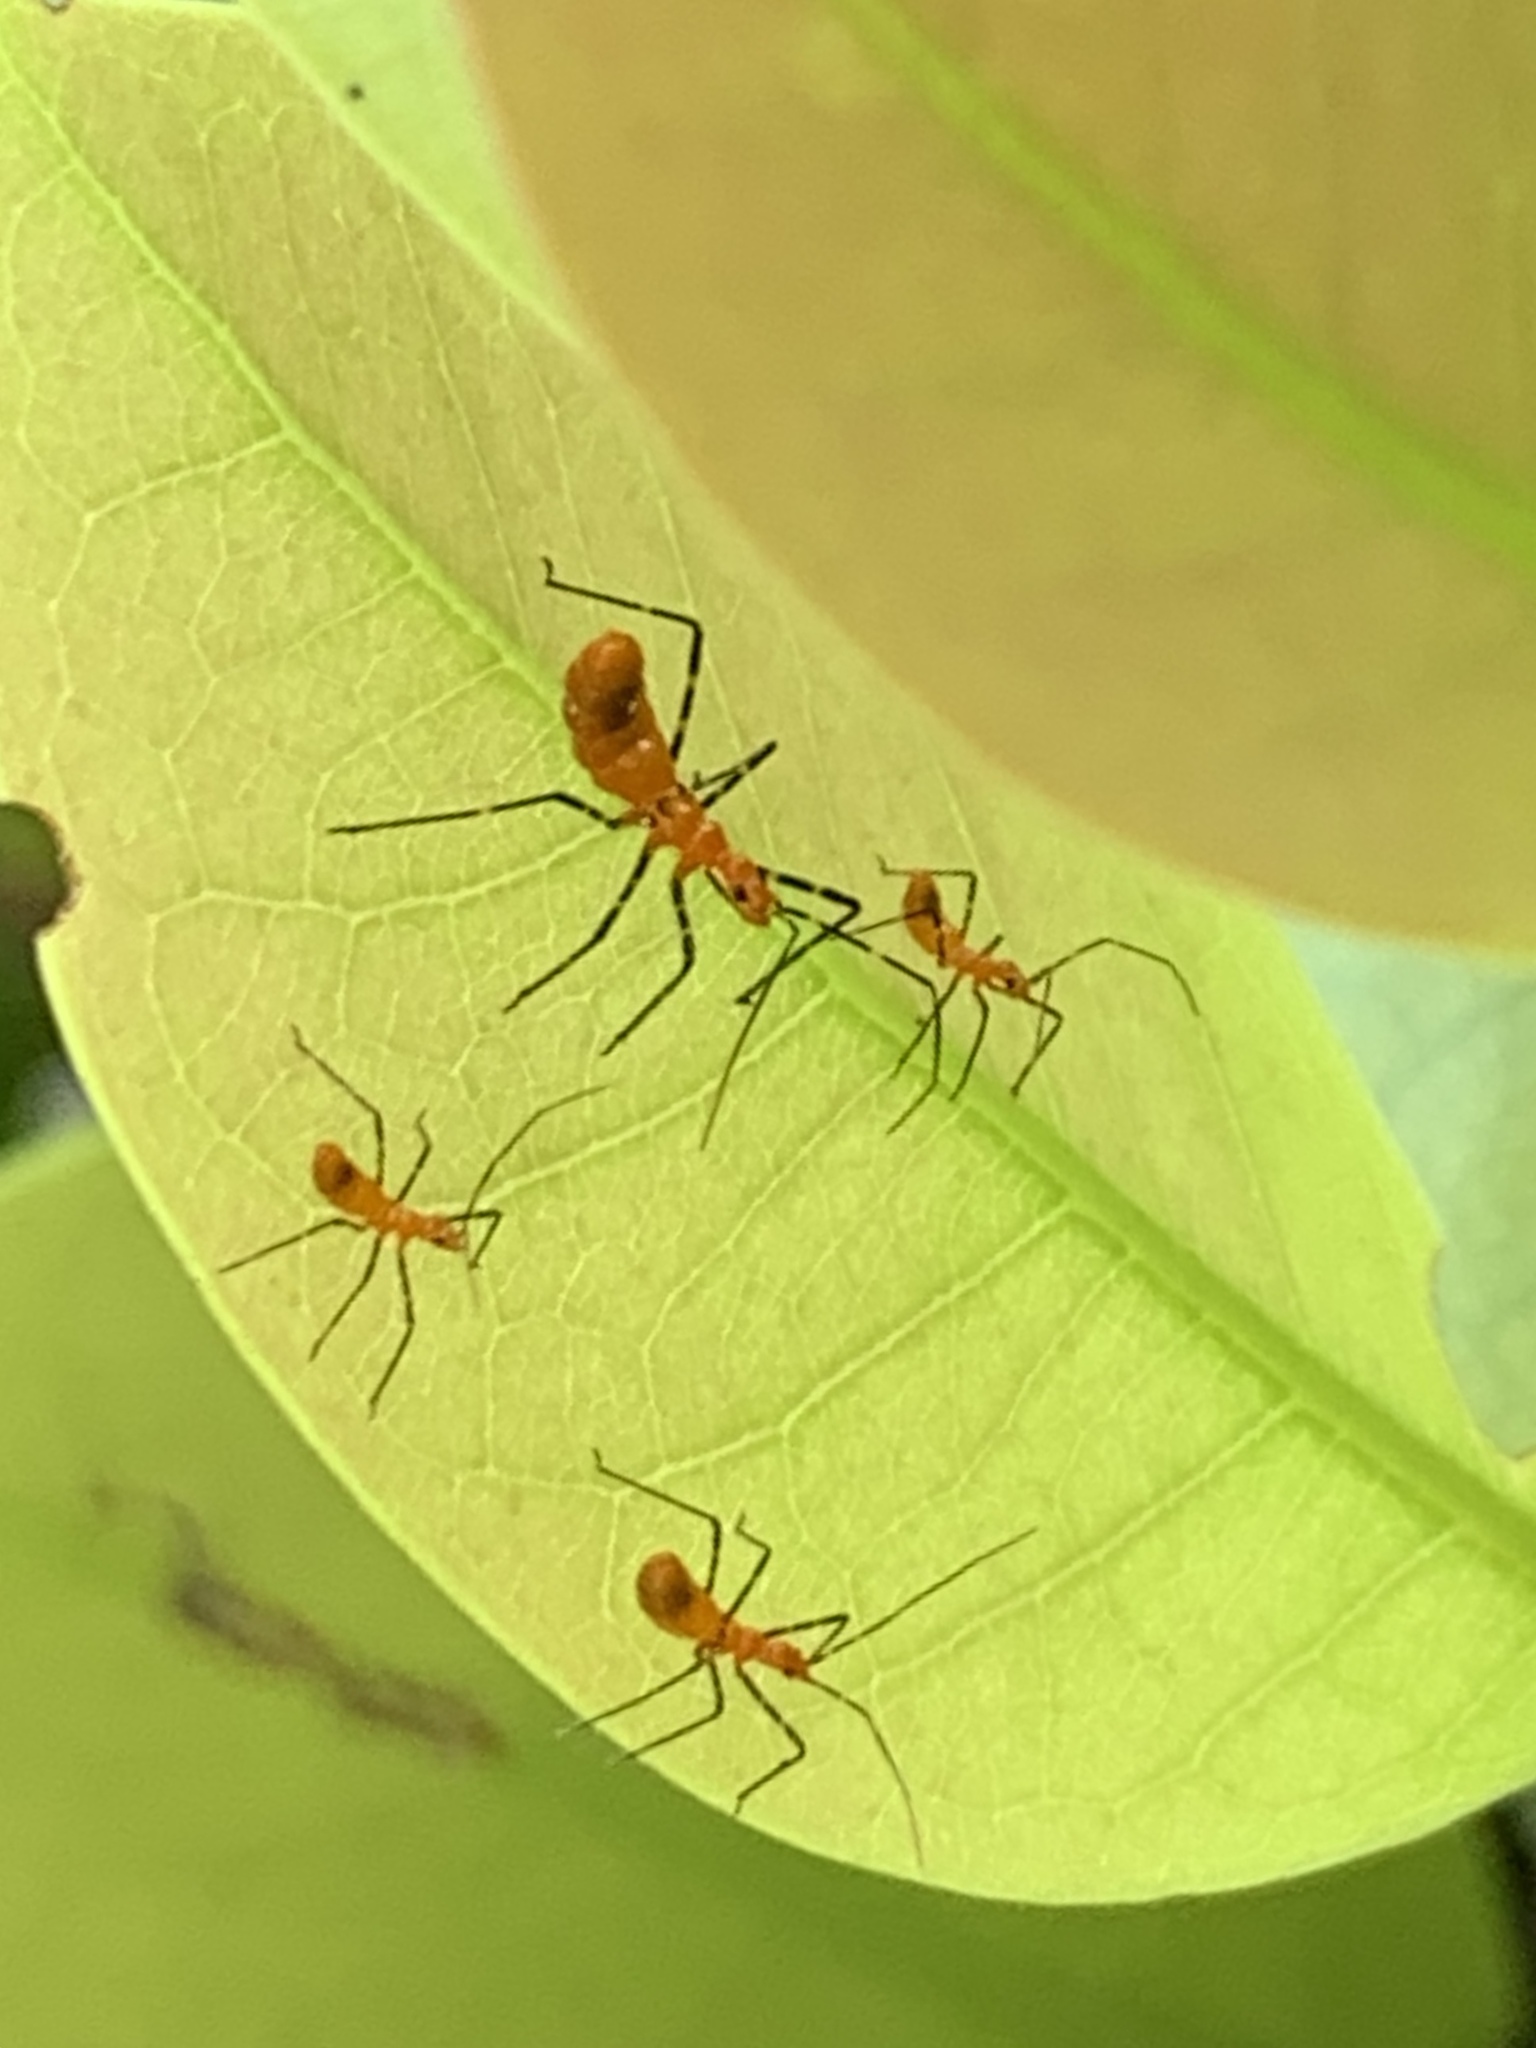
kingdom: Animalia
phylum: Arthropoda
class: Insecta
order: Hemiptera
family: Reduviidae
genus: Zelus
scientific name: Zelus longipes
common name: Milkweed assassin bug
